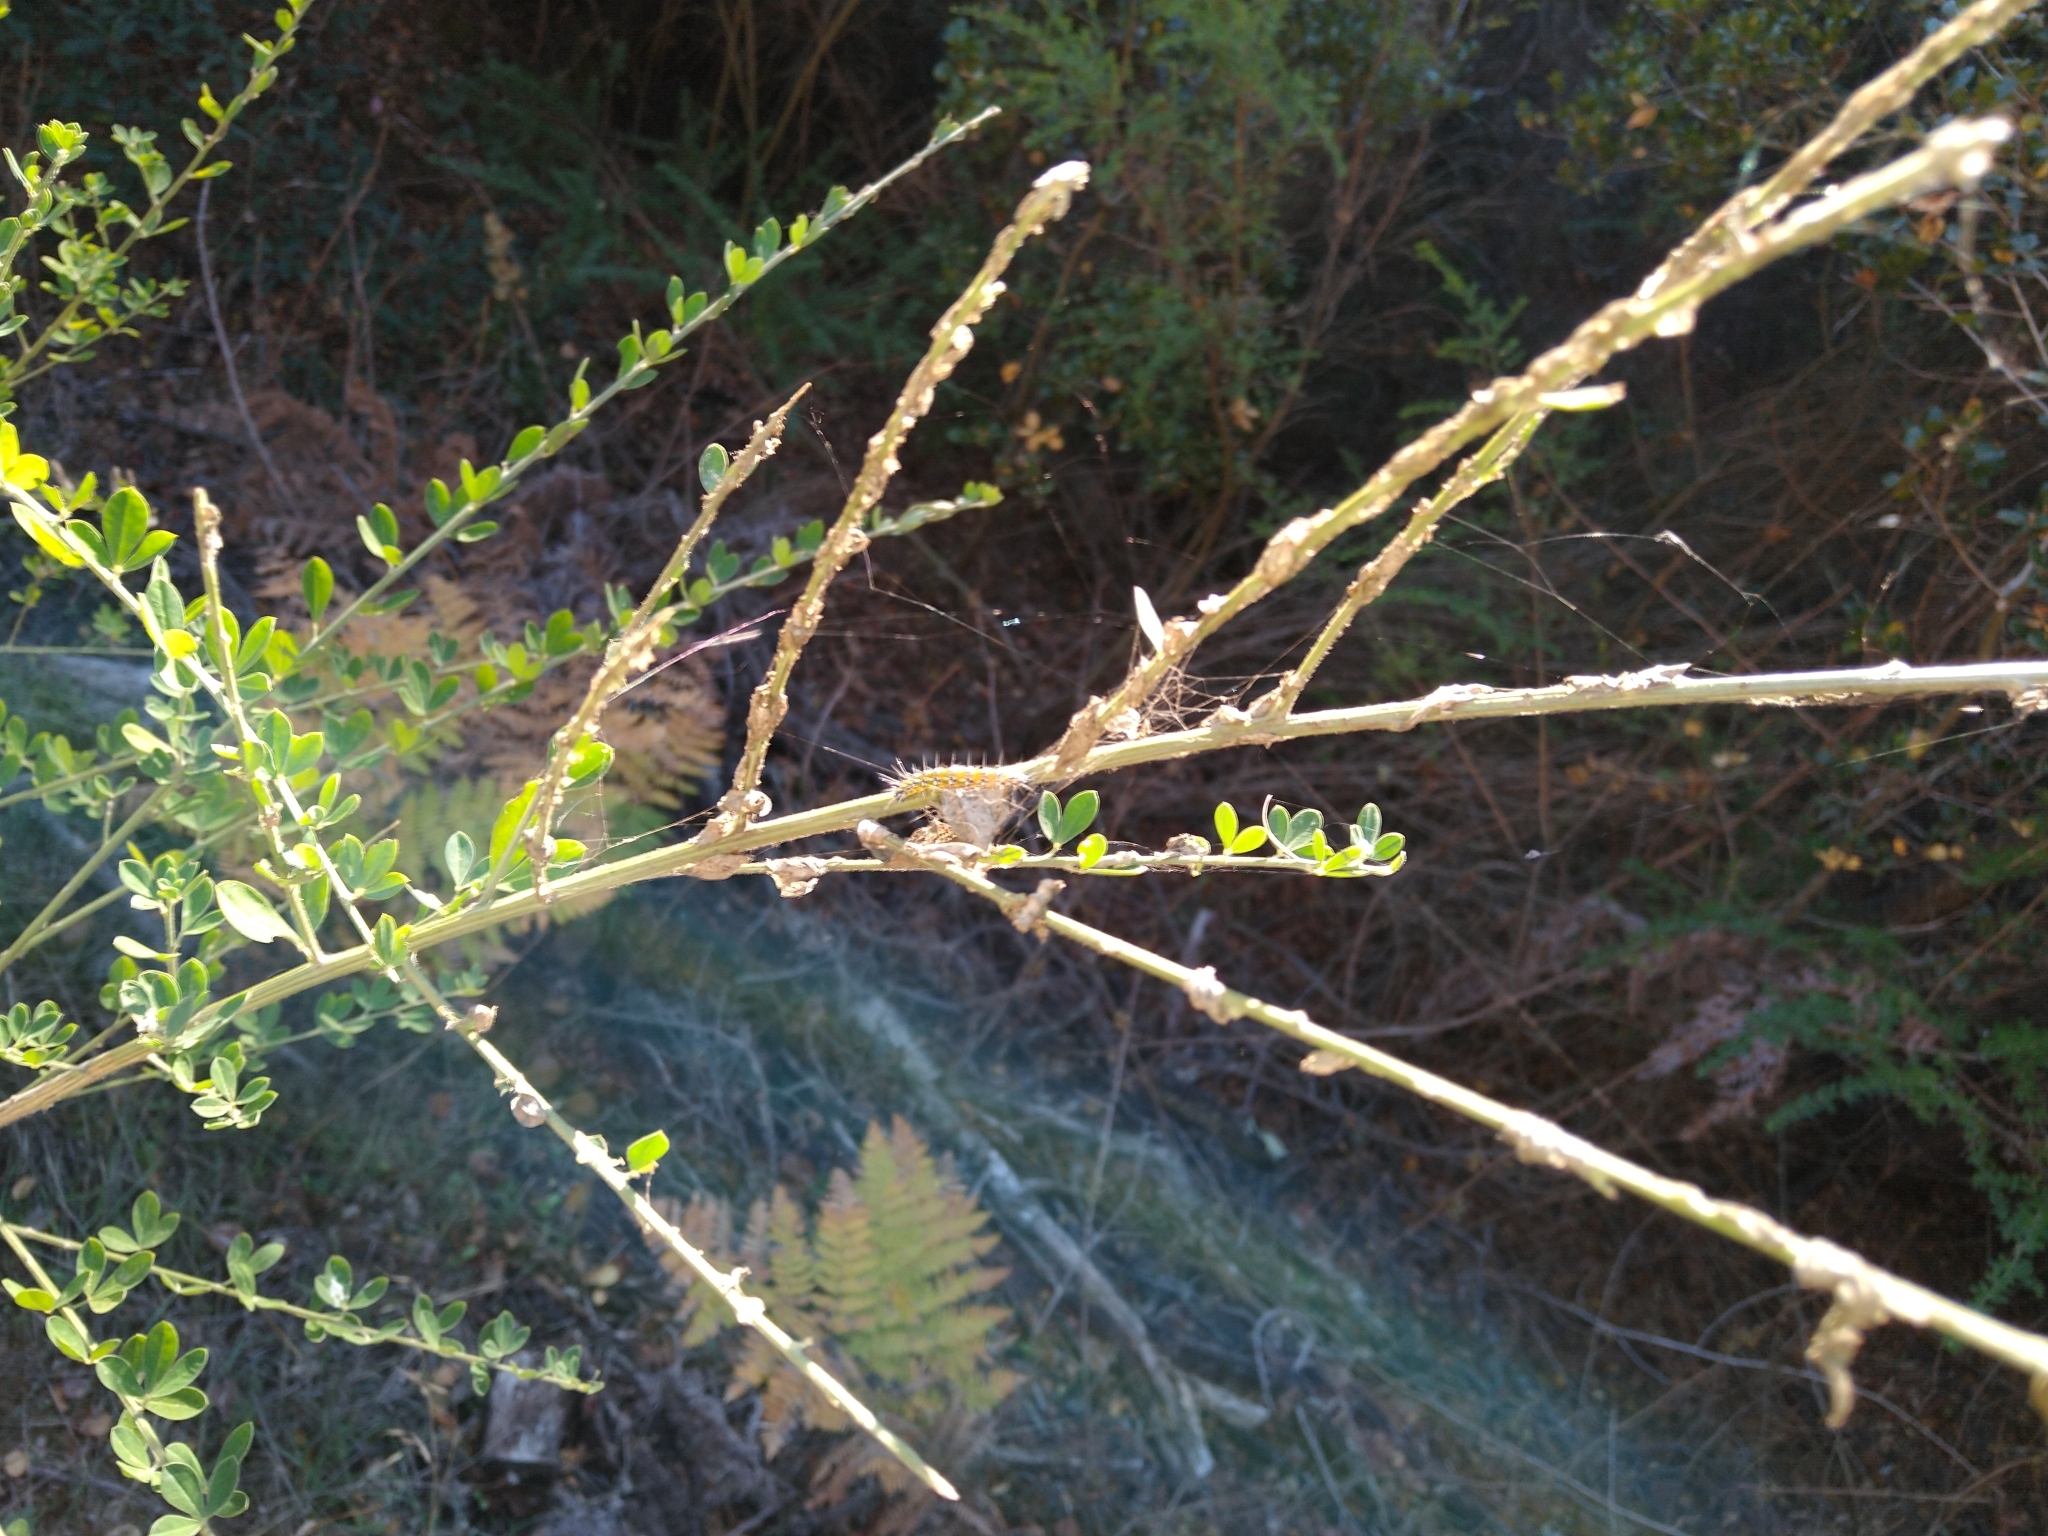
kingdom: Animalia
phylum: Arthropoda
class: Insecta
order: Lepidoptera
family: Crambidae
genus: Uresiphita
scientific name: Uresiphita reversalis
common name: Genista broom moth
